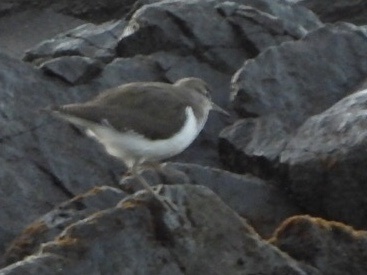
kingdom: Animalia
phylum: Chordata
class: Aves
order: Charadriiformes
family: Scolopacidae
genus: Actitis
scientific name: Actitis hypoleucos
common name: Common sandpiper
